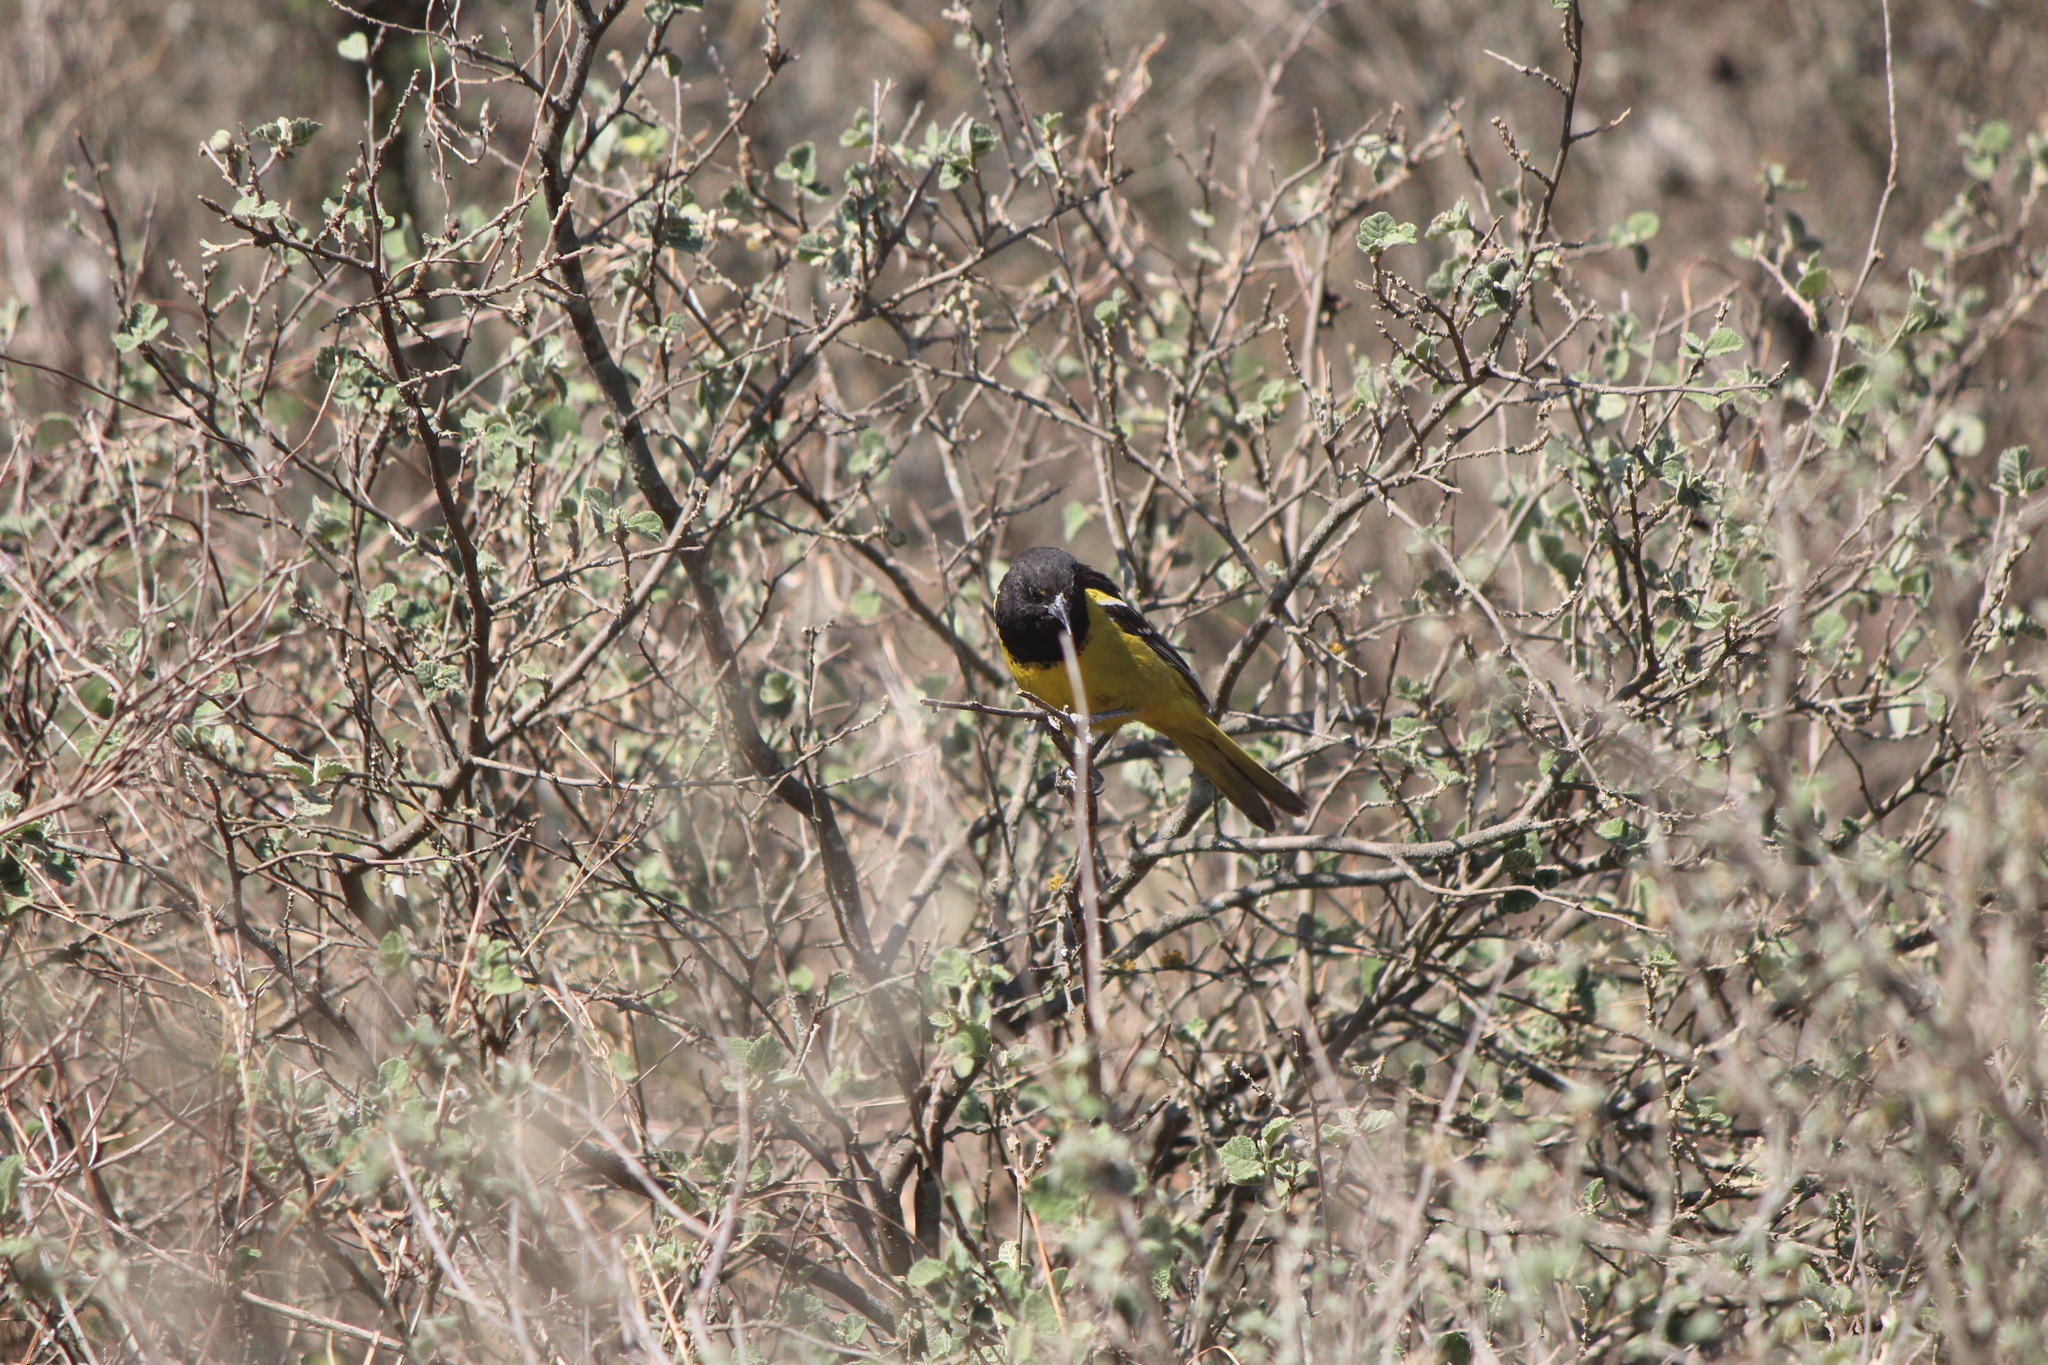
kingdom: Animalia
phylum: Chordata
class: Aves
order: Passeriformes
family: Icteridae
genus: Icterus
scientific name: Icterus parisorum
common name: Scott's oriole
